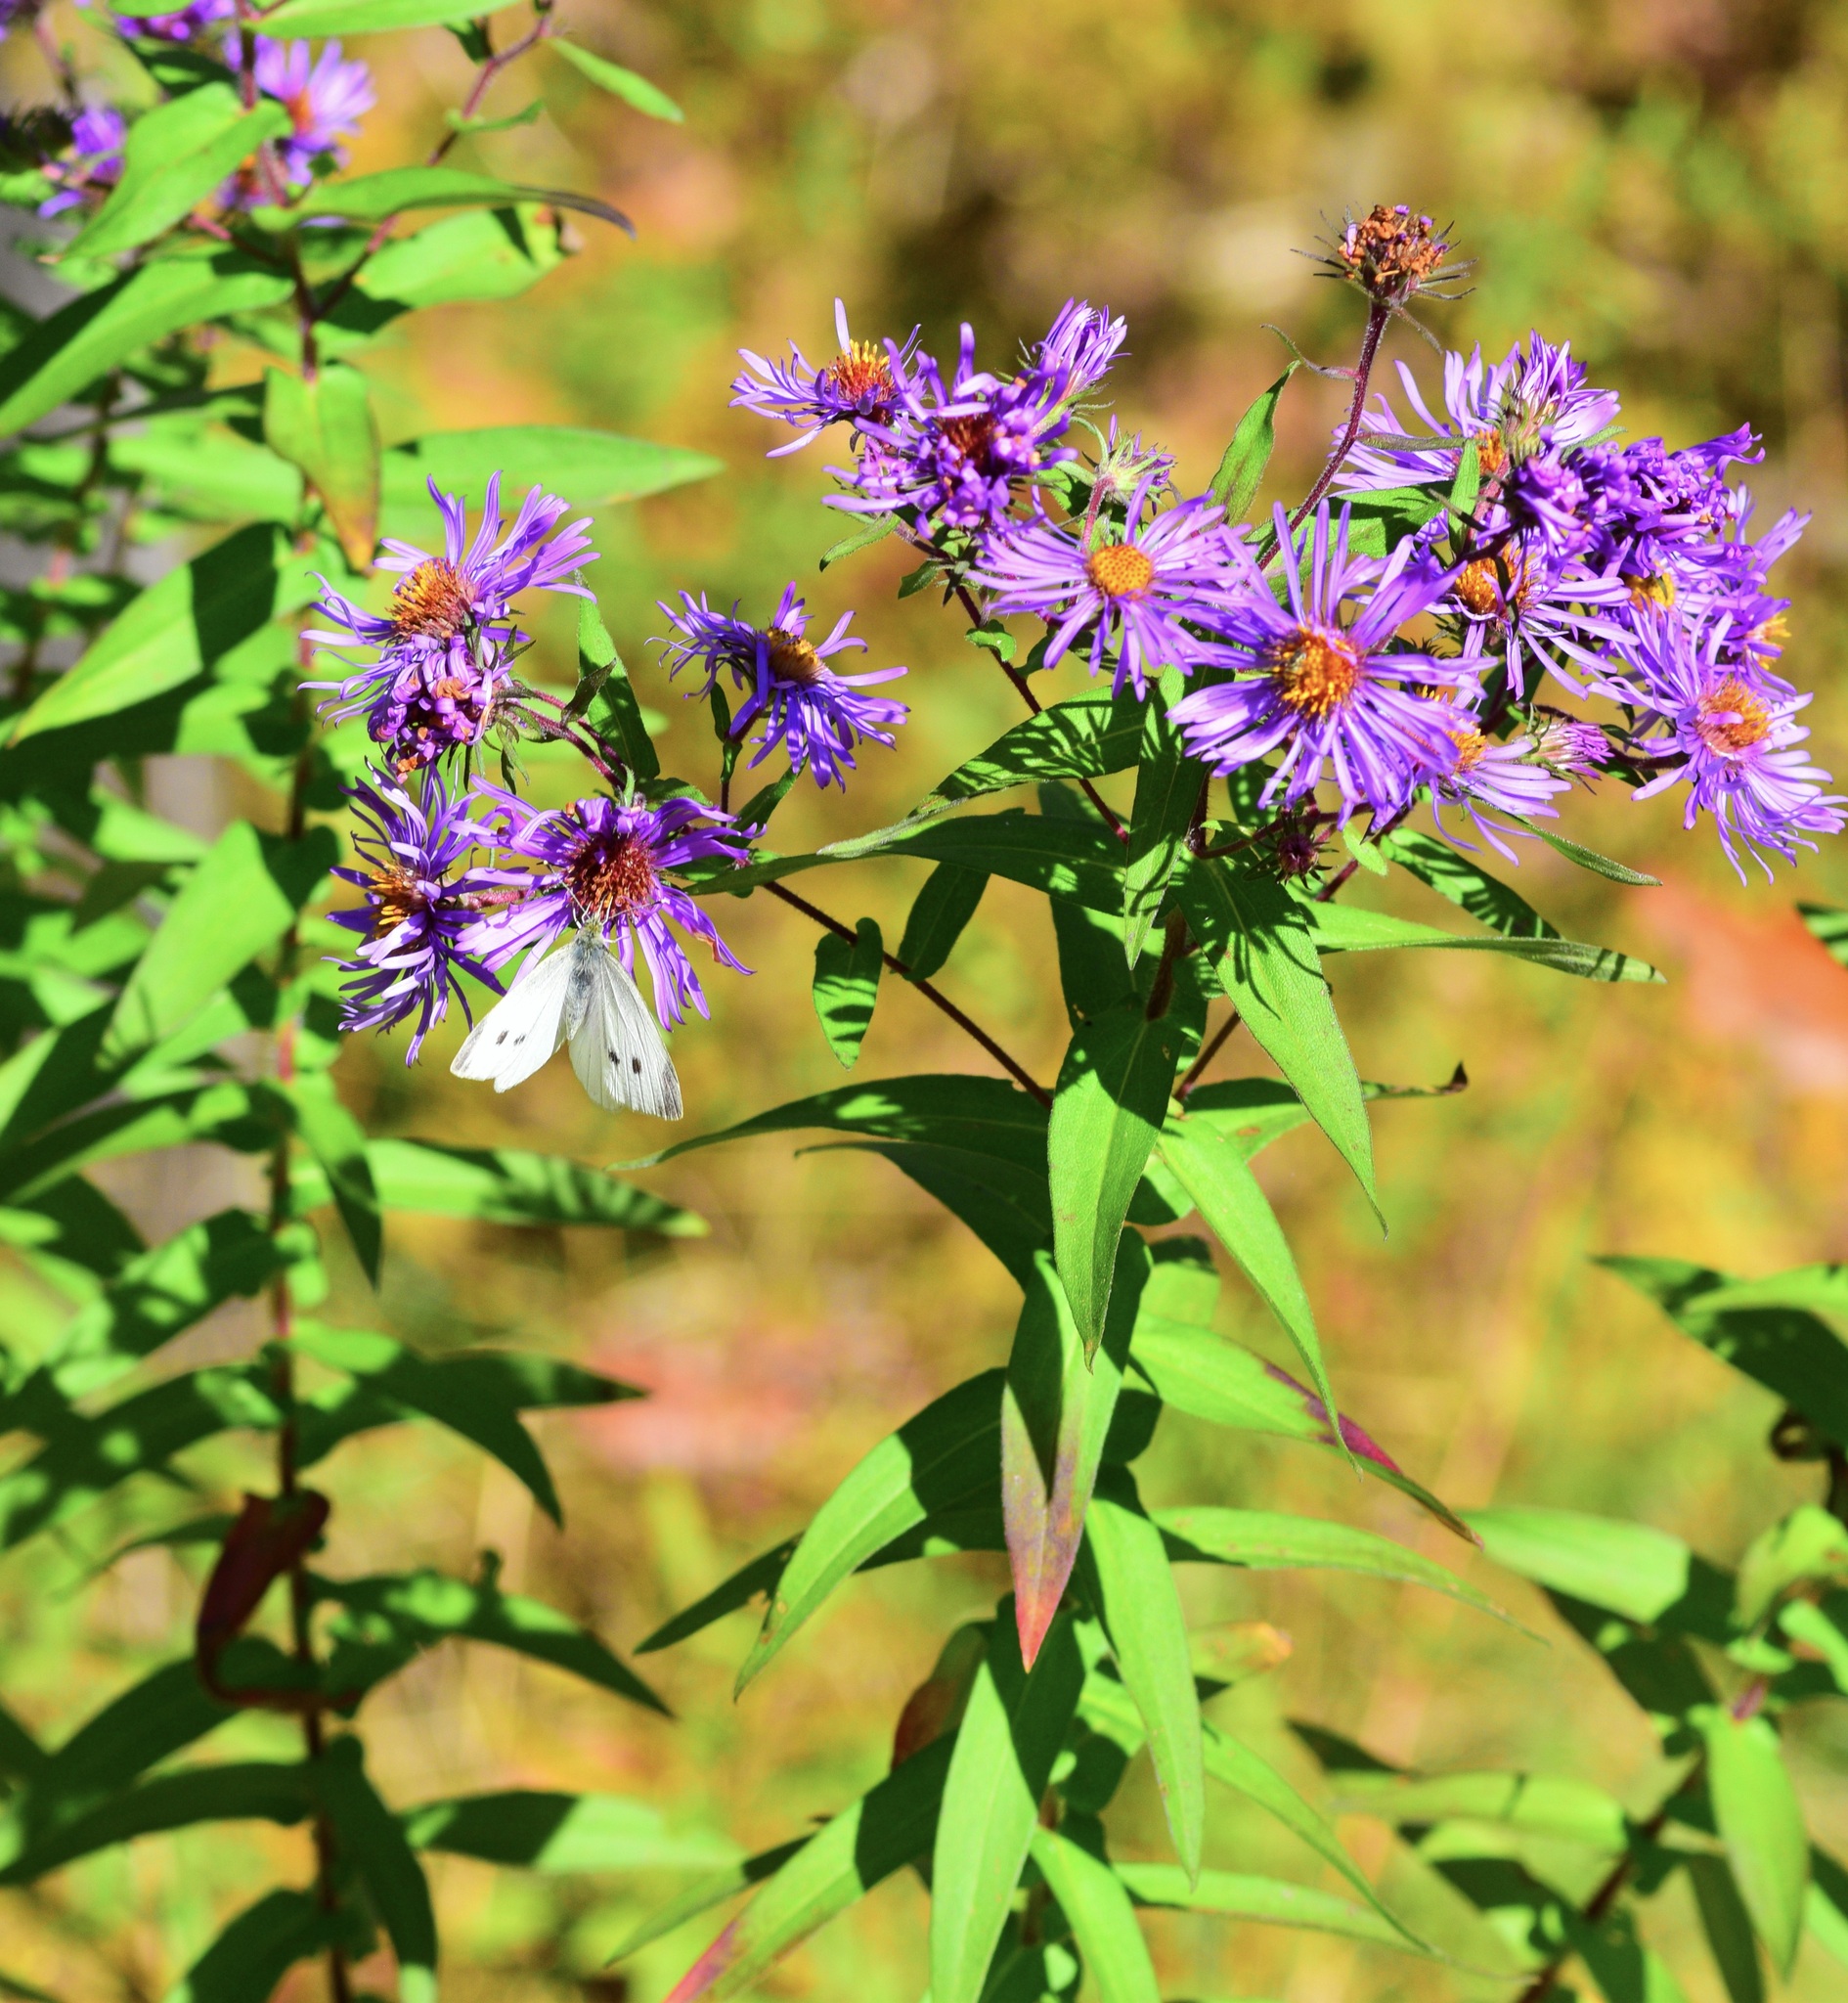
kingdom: Animalia
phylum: Arthropoda
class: Insecta
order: Lepidoptera
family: Pieridae
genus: Pieris
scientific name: Pieris rapae
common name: Small white
